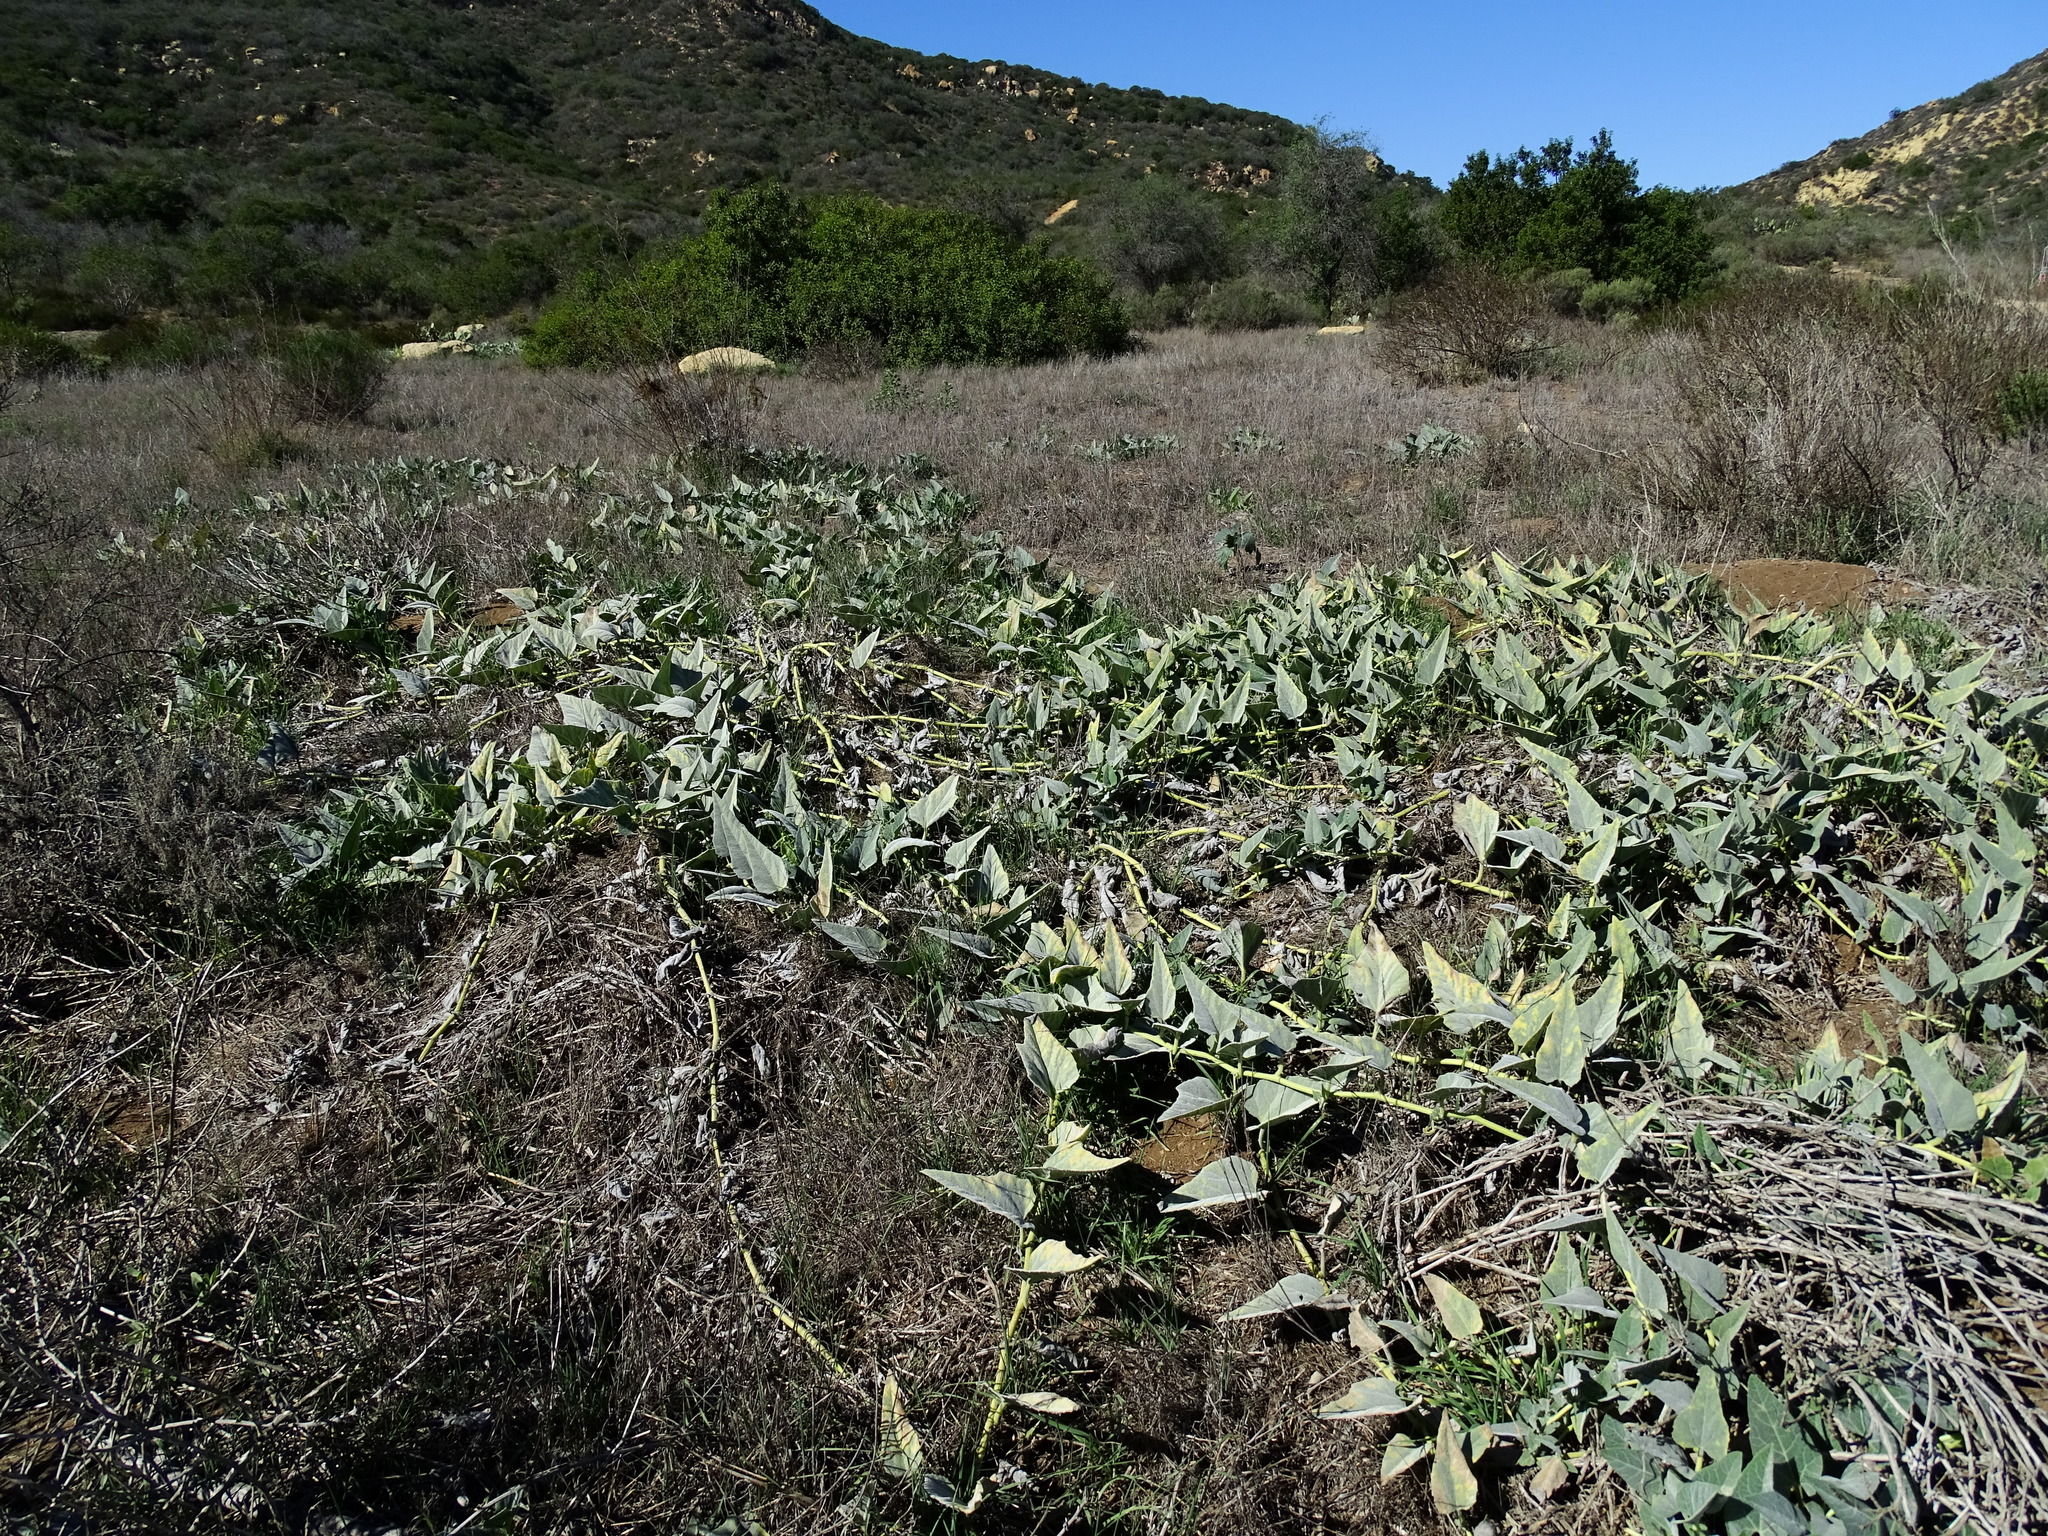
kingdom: Plantae
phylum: Tracheophyta
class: Magnoliopsida
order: Cucurbitales
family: Cucurbitaceae
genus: Cucurbita
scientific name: Cucurbita foetidissima
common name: Buffalo gourd
